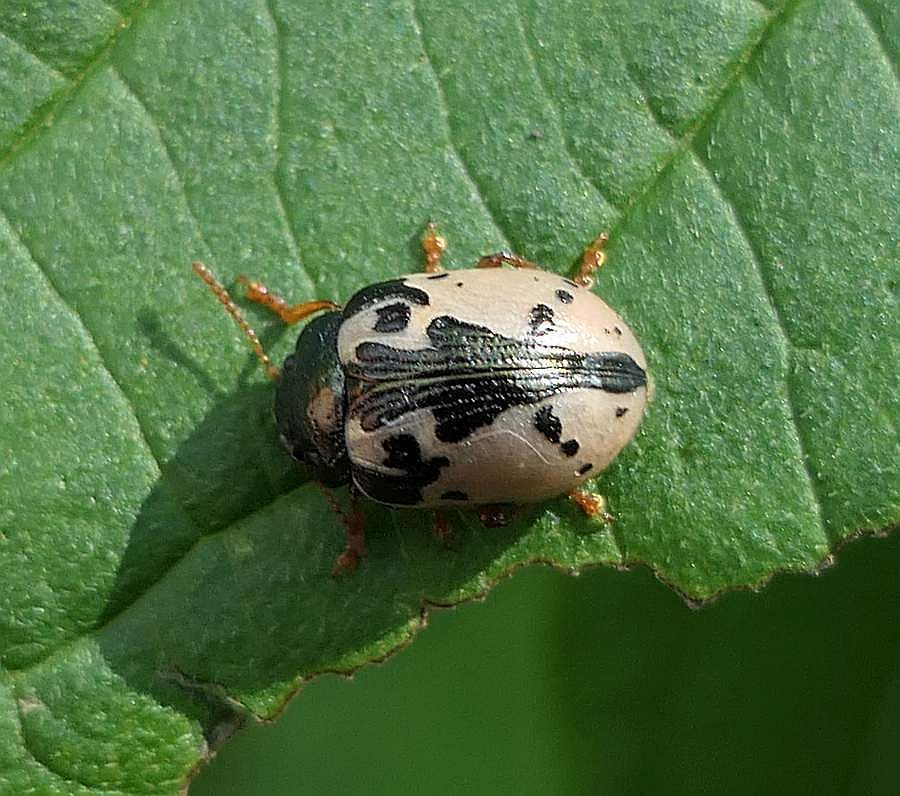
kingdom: Animalia
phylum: Arthropoda
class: Insecta
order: Coleoptera
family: Chrysomelidae
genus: Calligrapha
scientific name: Calligrapha rowena
